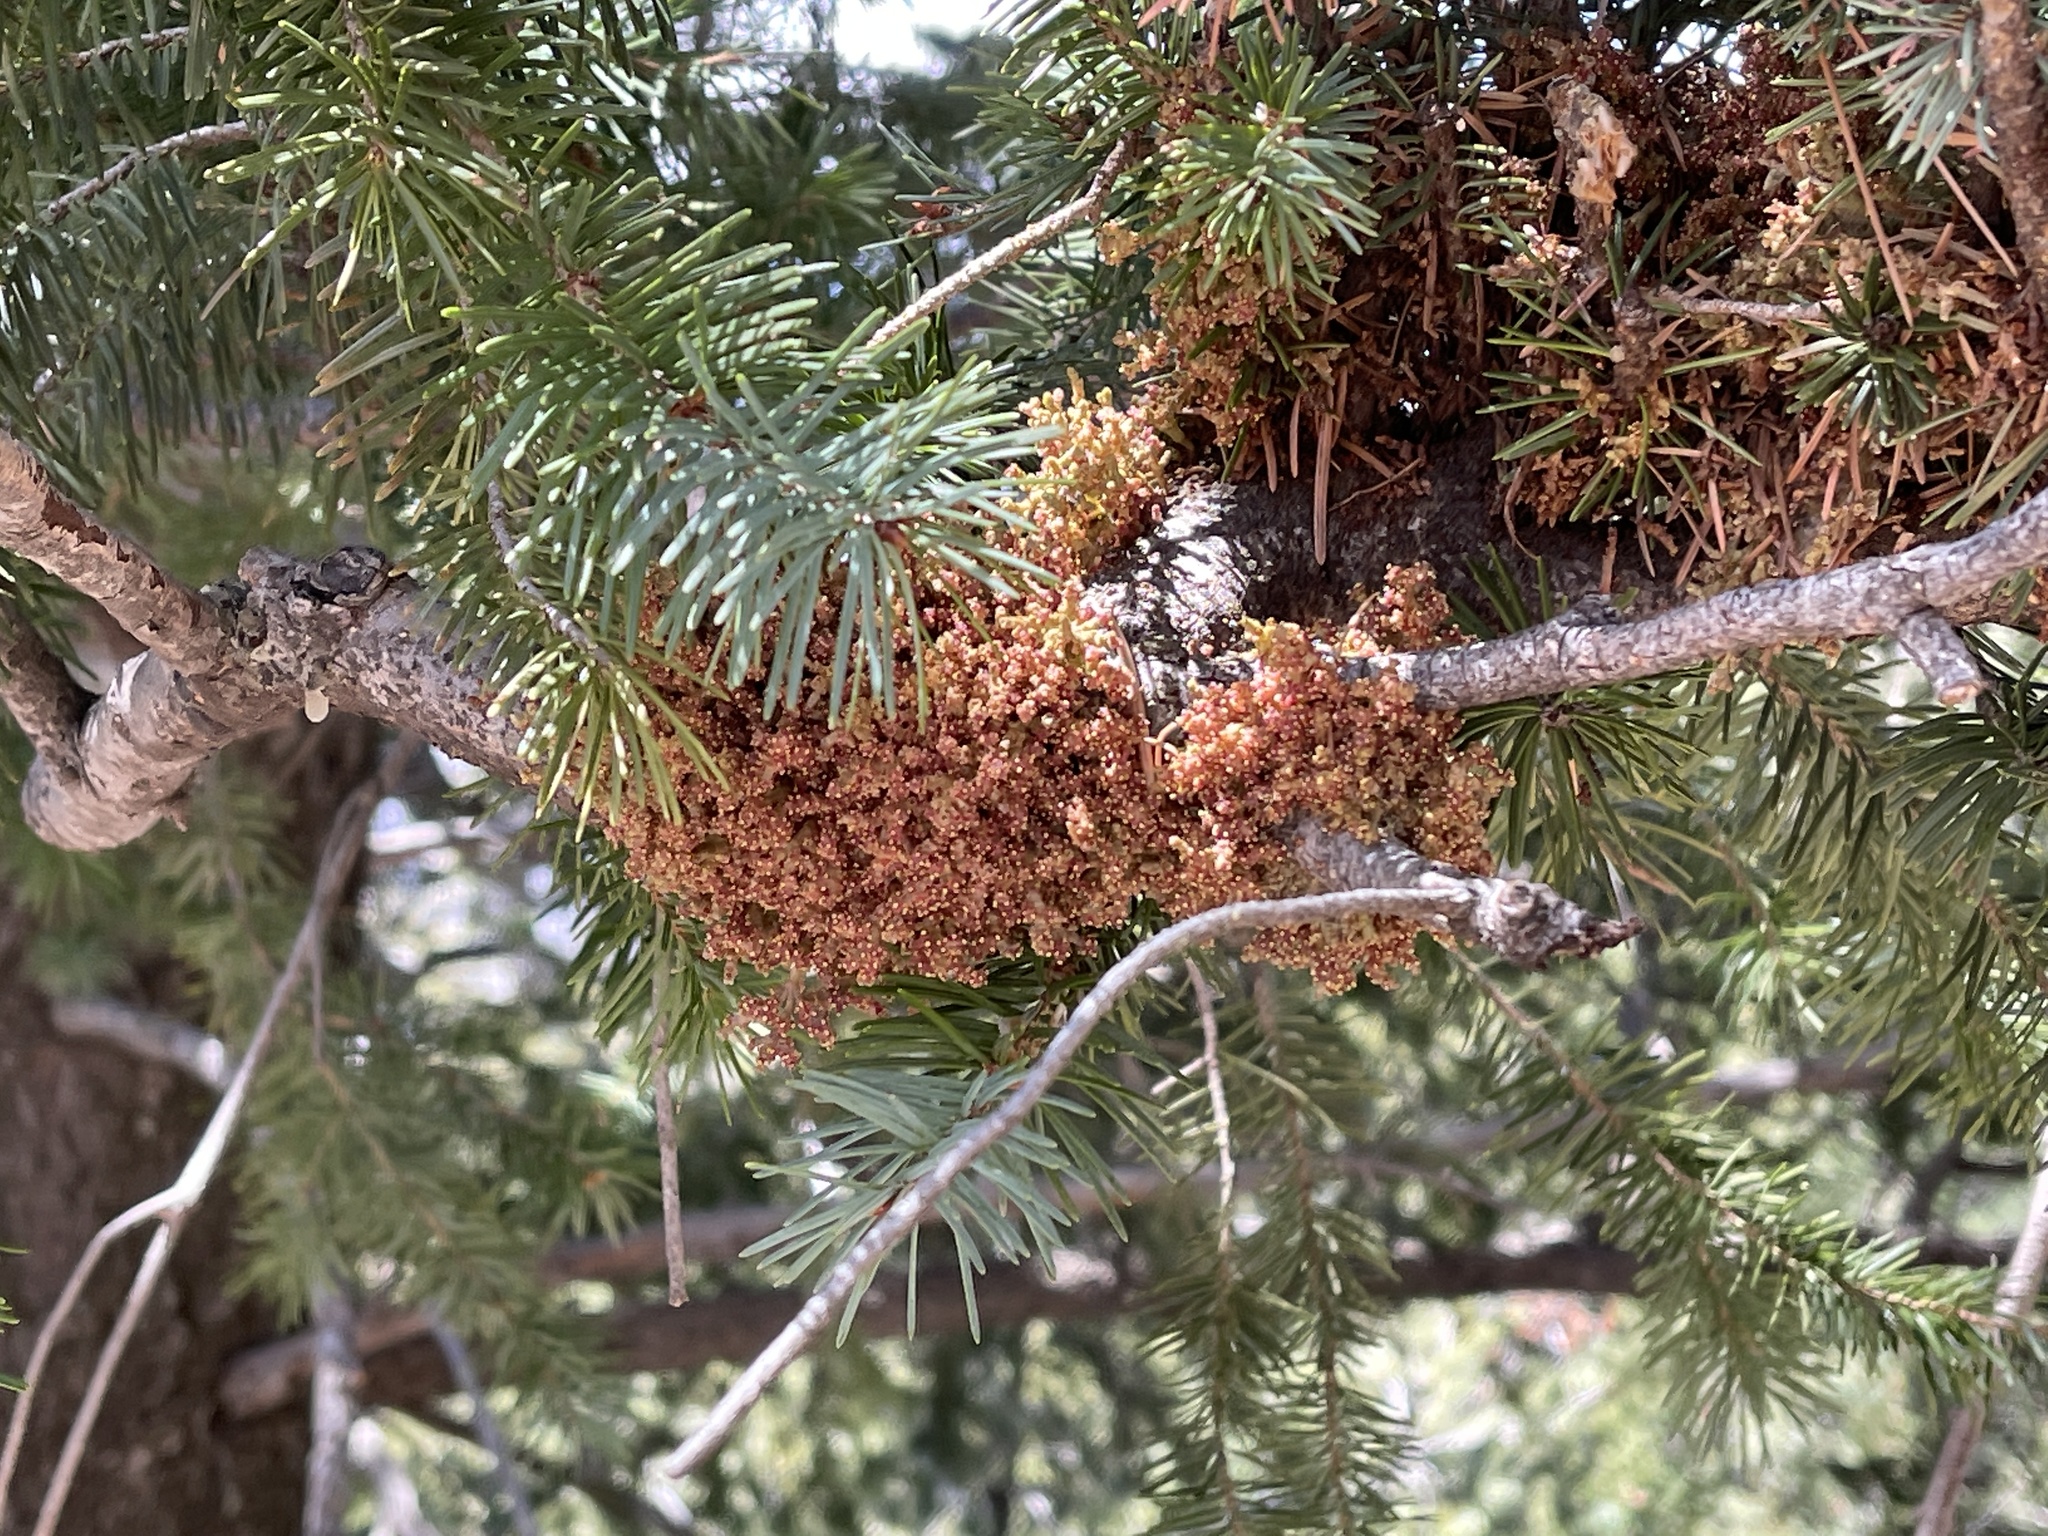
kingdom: Plantae
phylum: Tracheophyta
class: Magnoliopsida
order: Santalales
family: Viscaceae
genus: Arceuthobium
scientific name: Arceuthobium douglasii
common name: Douglas' dwarf mistletoe
